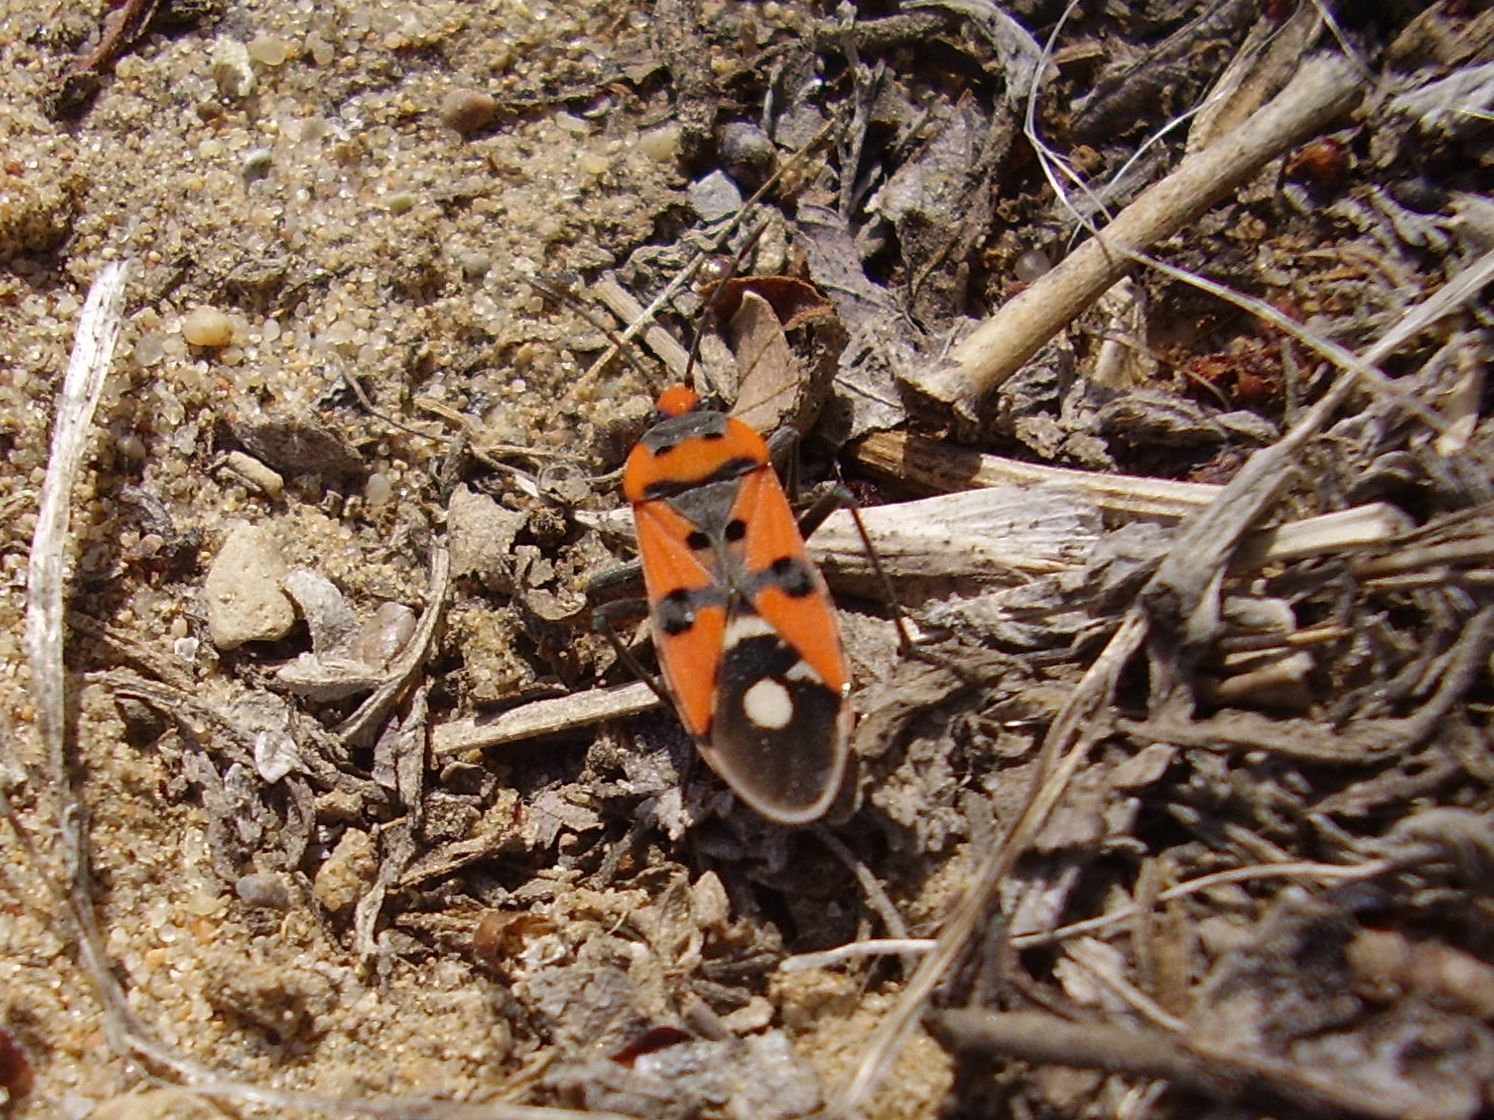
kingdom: Animalia
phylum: Arthropoda
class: Insecta
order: Hemiptera
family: Lygaeidae
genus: Lygaeus
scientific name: Lygaeus simulans
